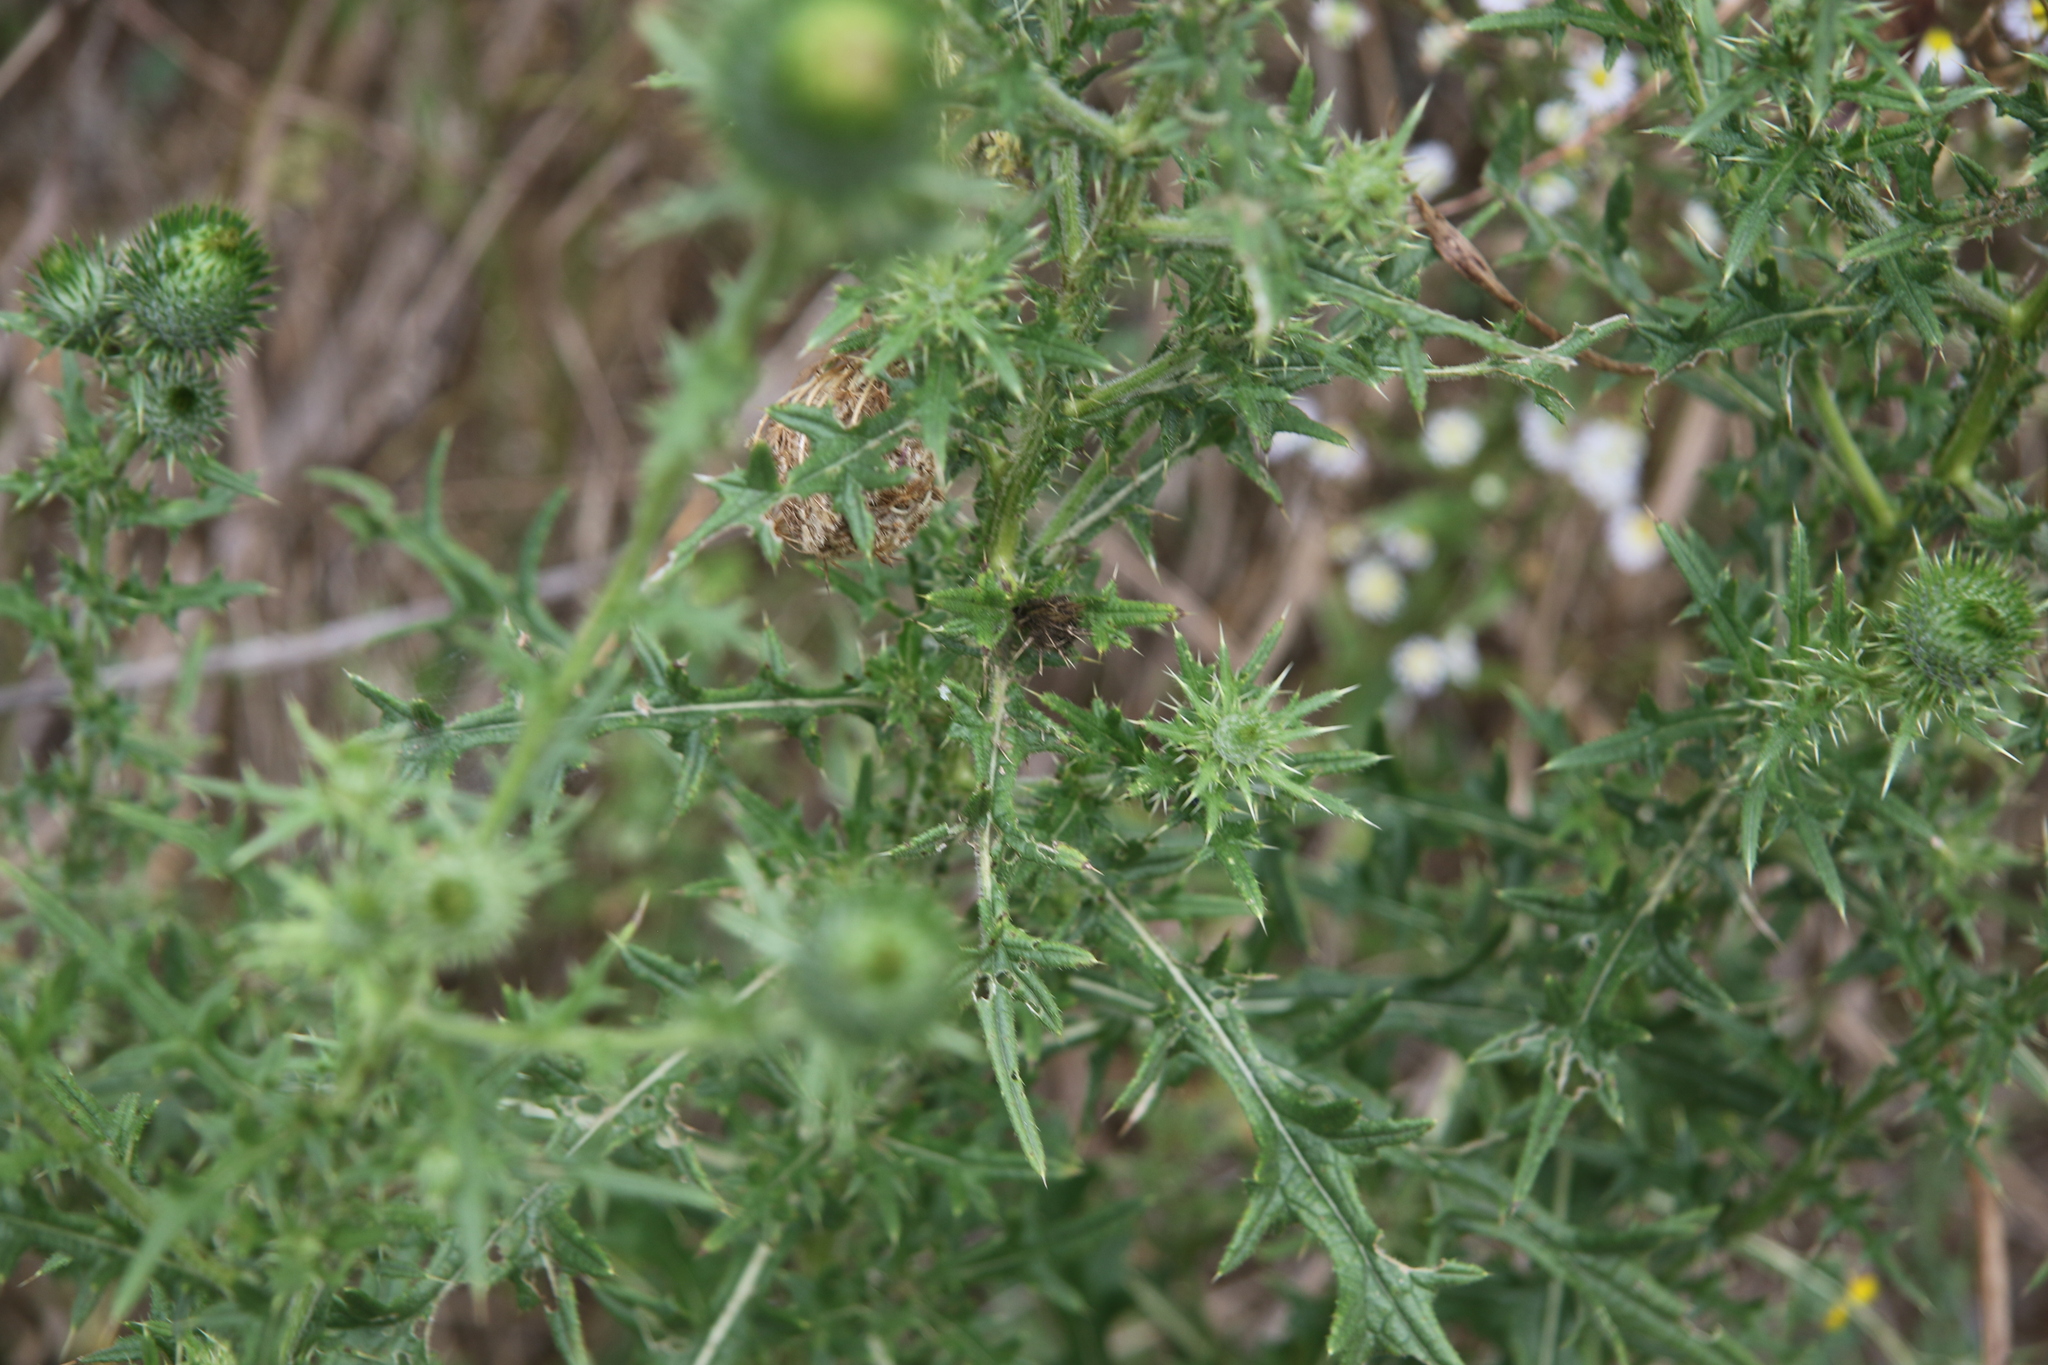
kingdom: Plantae
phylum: Tracheophyta
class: Magnoliopsida
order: Asterales
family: Asteraceae
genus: Cirsium
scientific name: Cirsium vulgare
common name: Bull thistle
